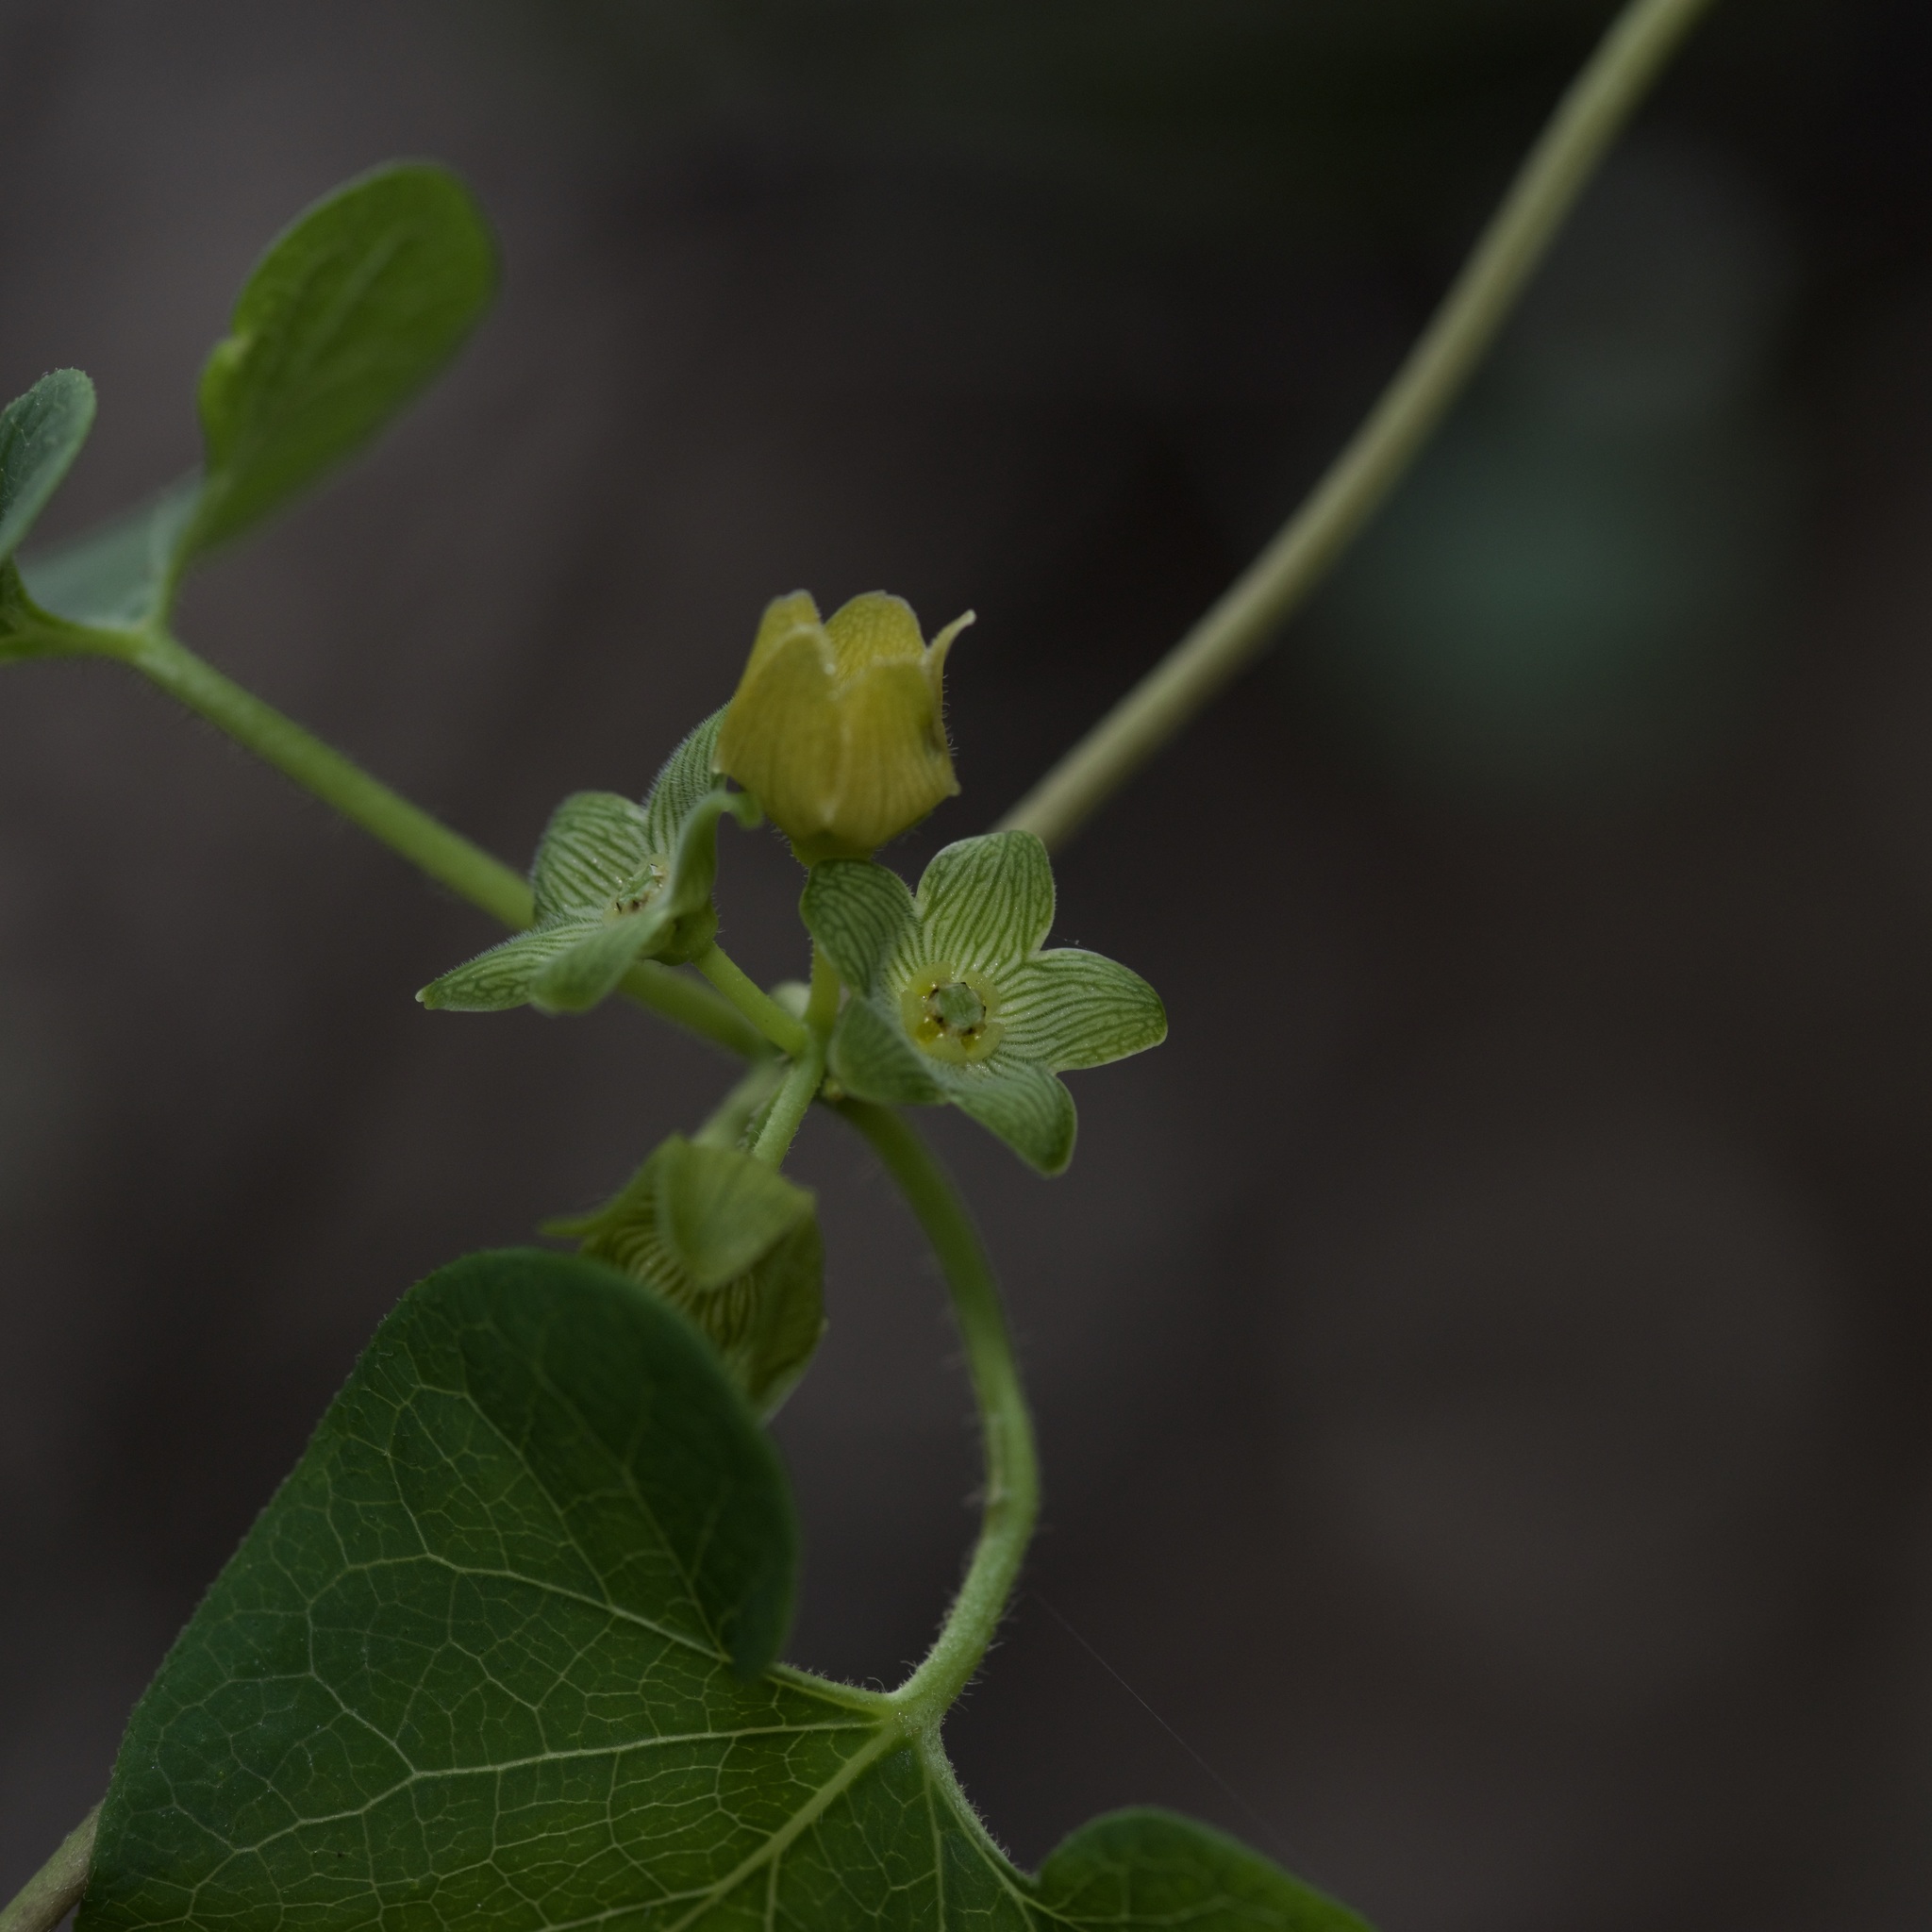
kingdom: Plantae
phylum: Tracheophyta
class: Magnoliopsida
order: Gentianales
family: Apocynaceae
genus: Matelea
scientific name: Matelea edwardsensis
